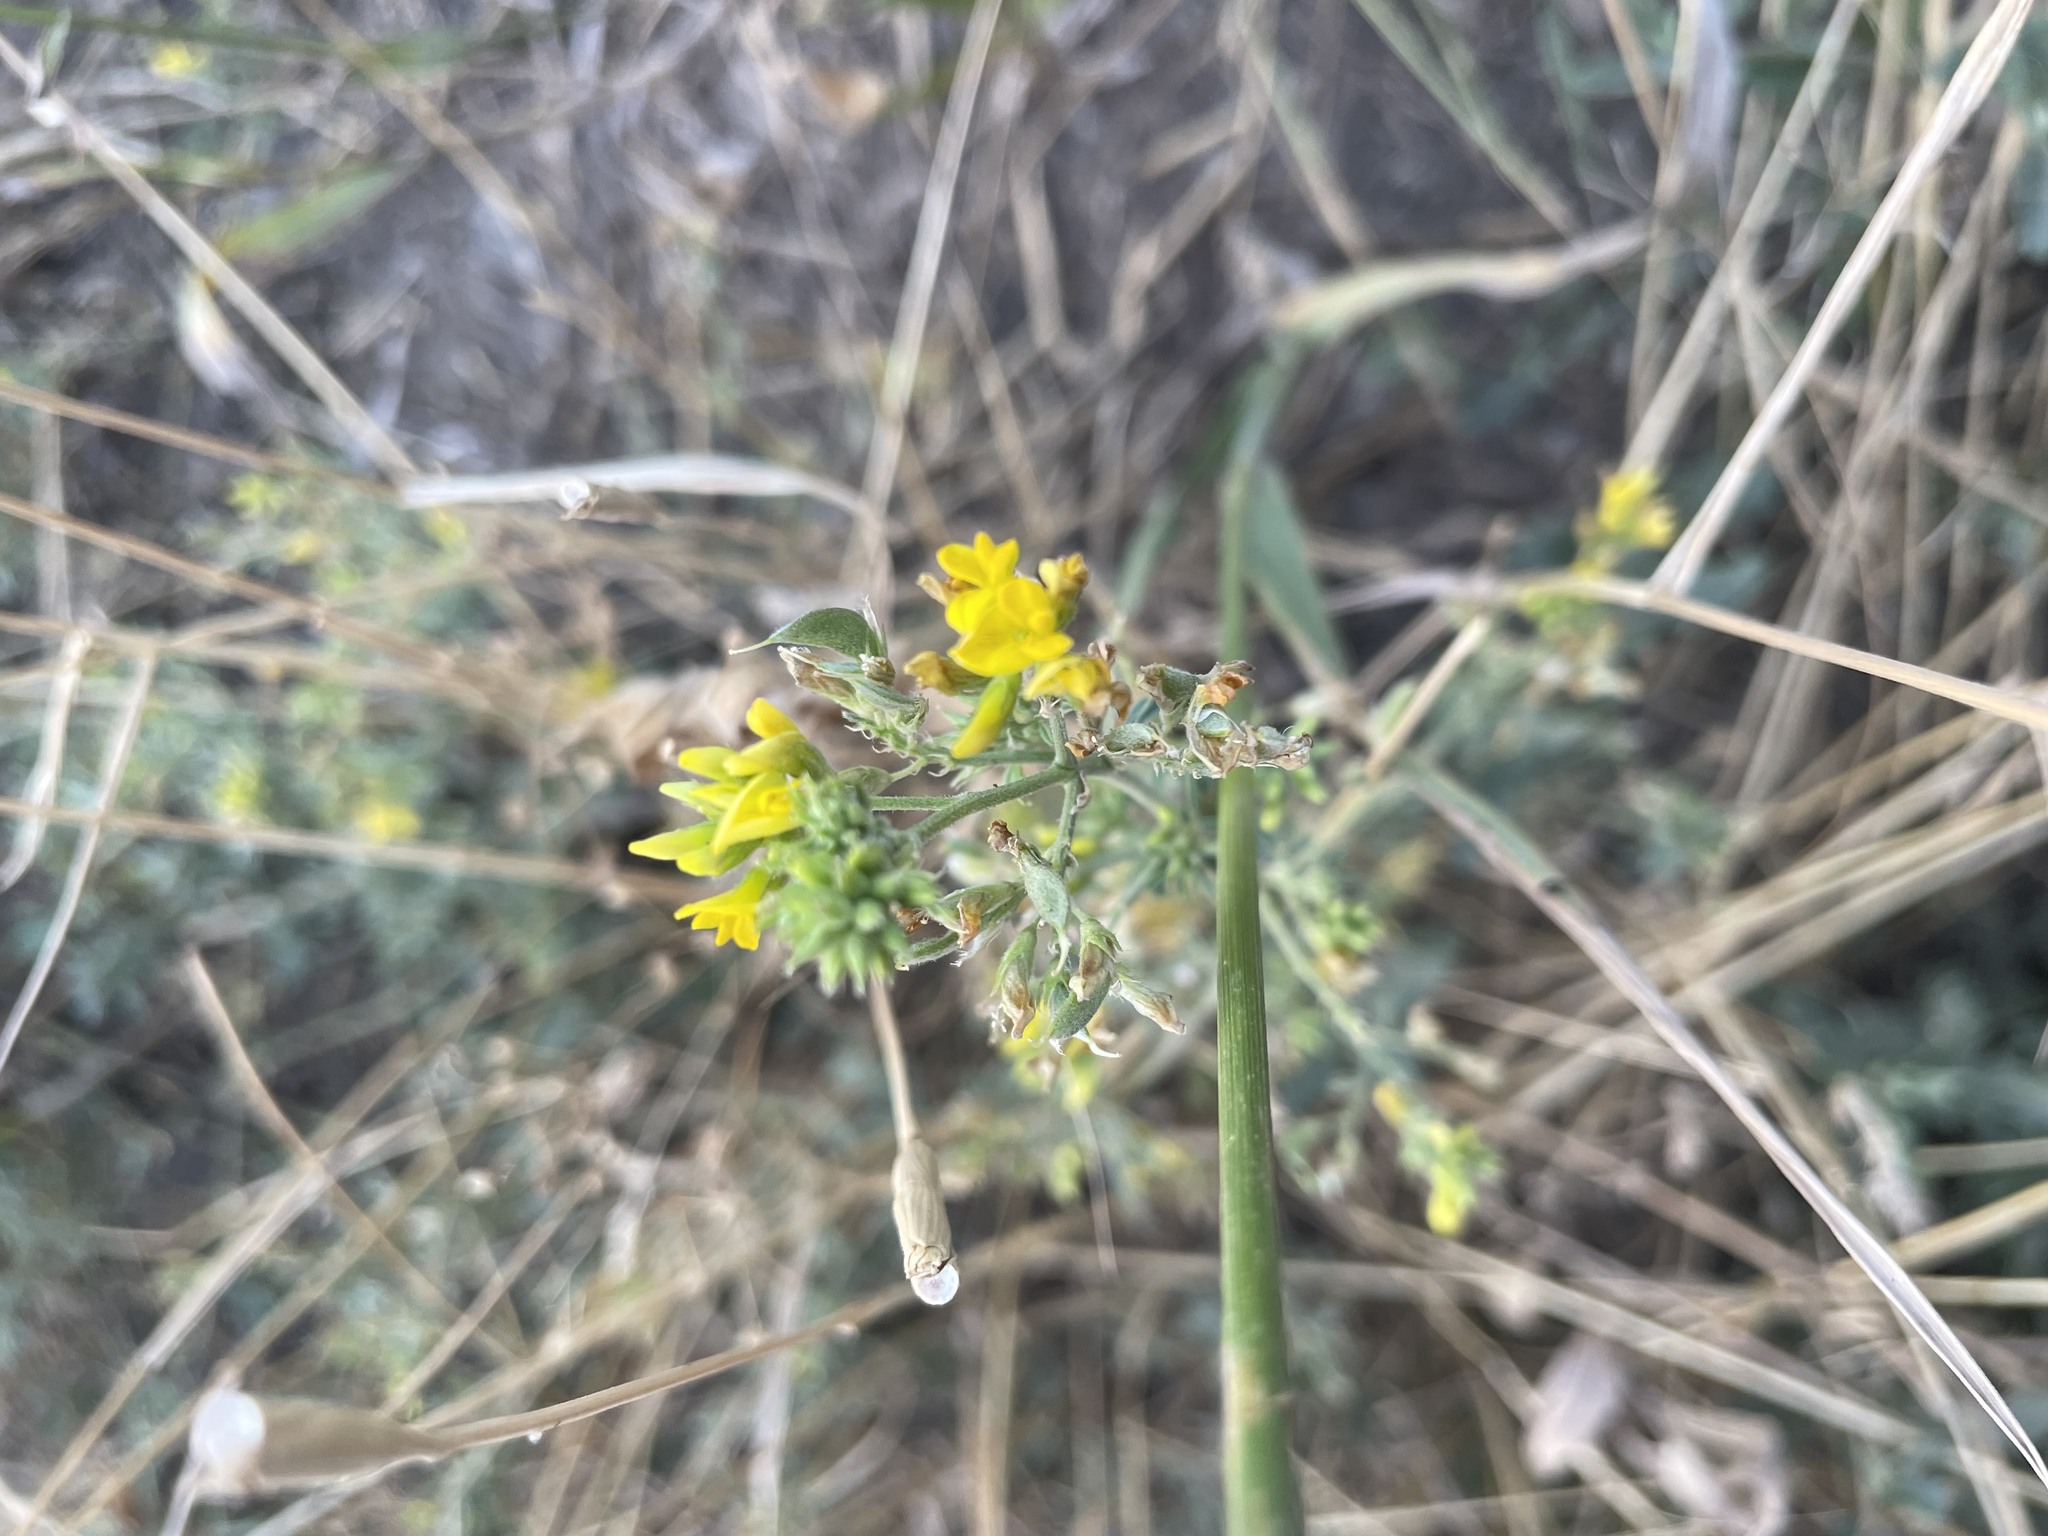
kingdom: Plantae
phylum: Tracheophyta
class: Magnoliopsida
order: Fabales
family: Fabaceae
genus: Medicago
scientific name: Medicago falcata
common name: Sickle medick
